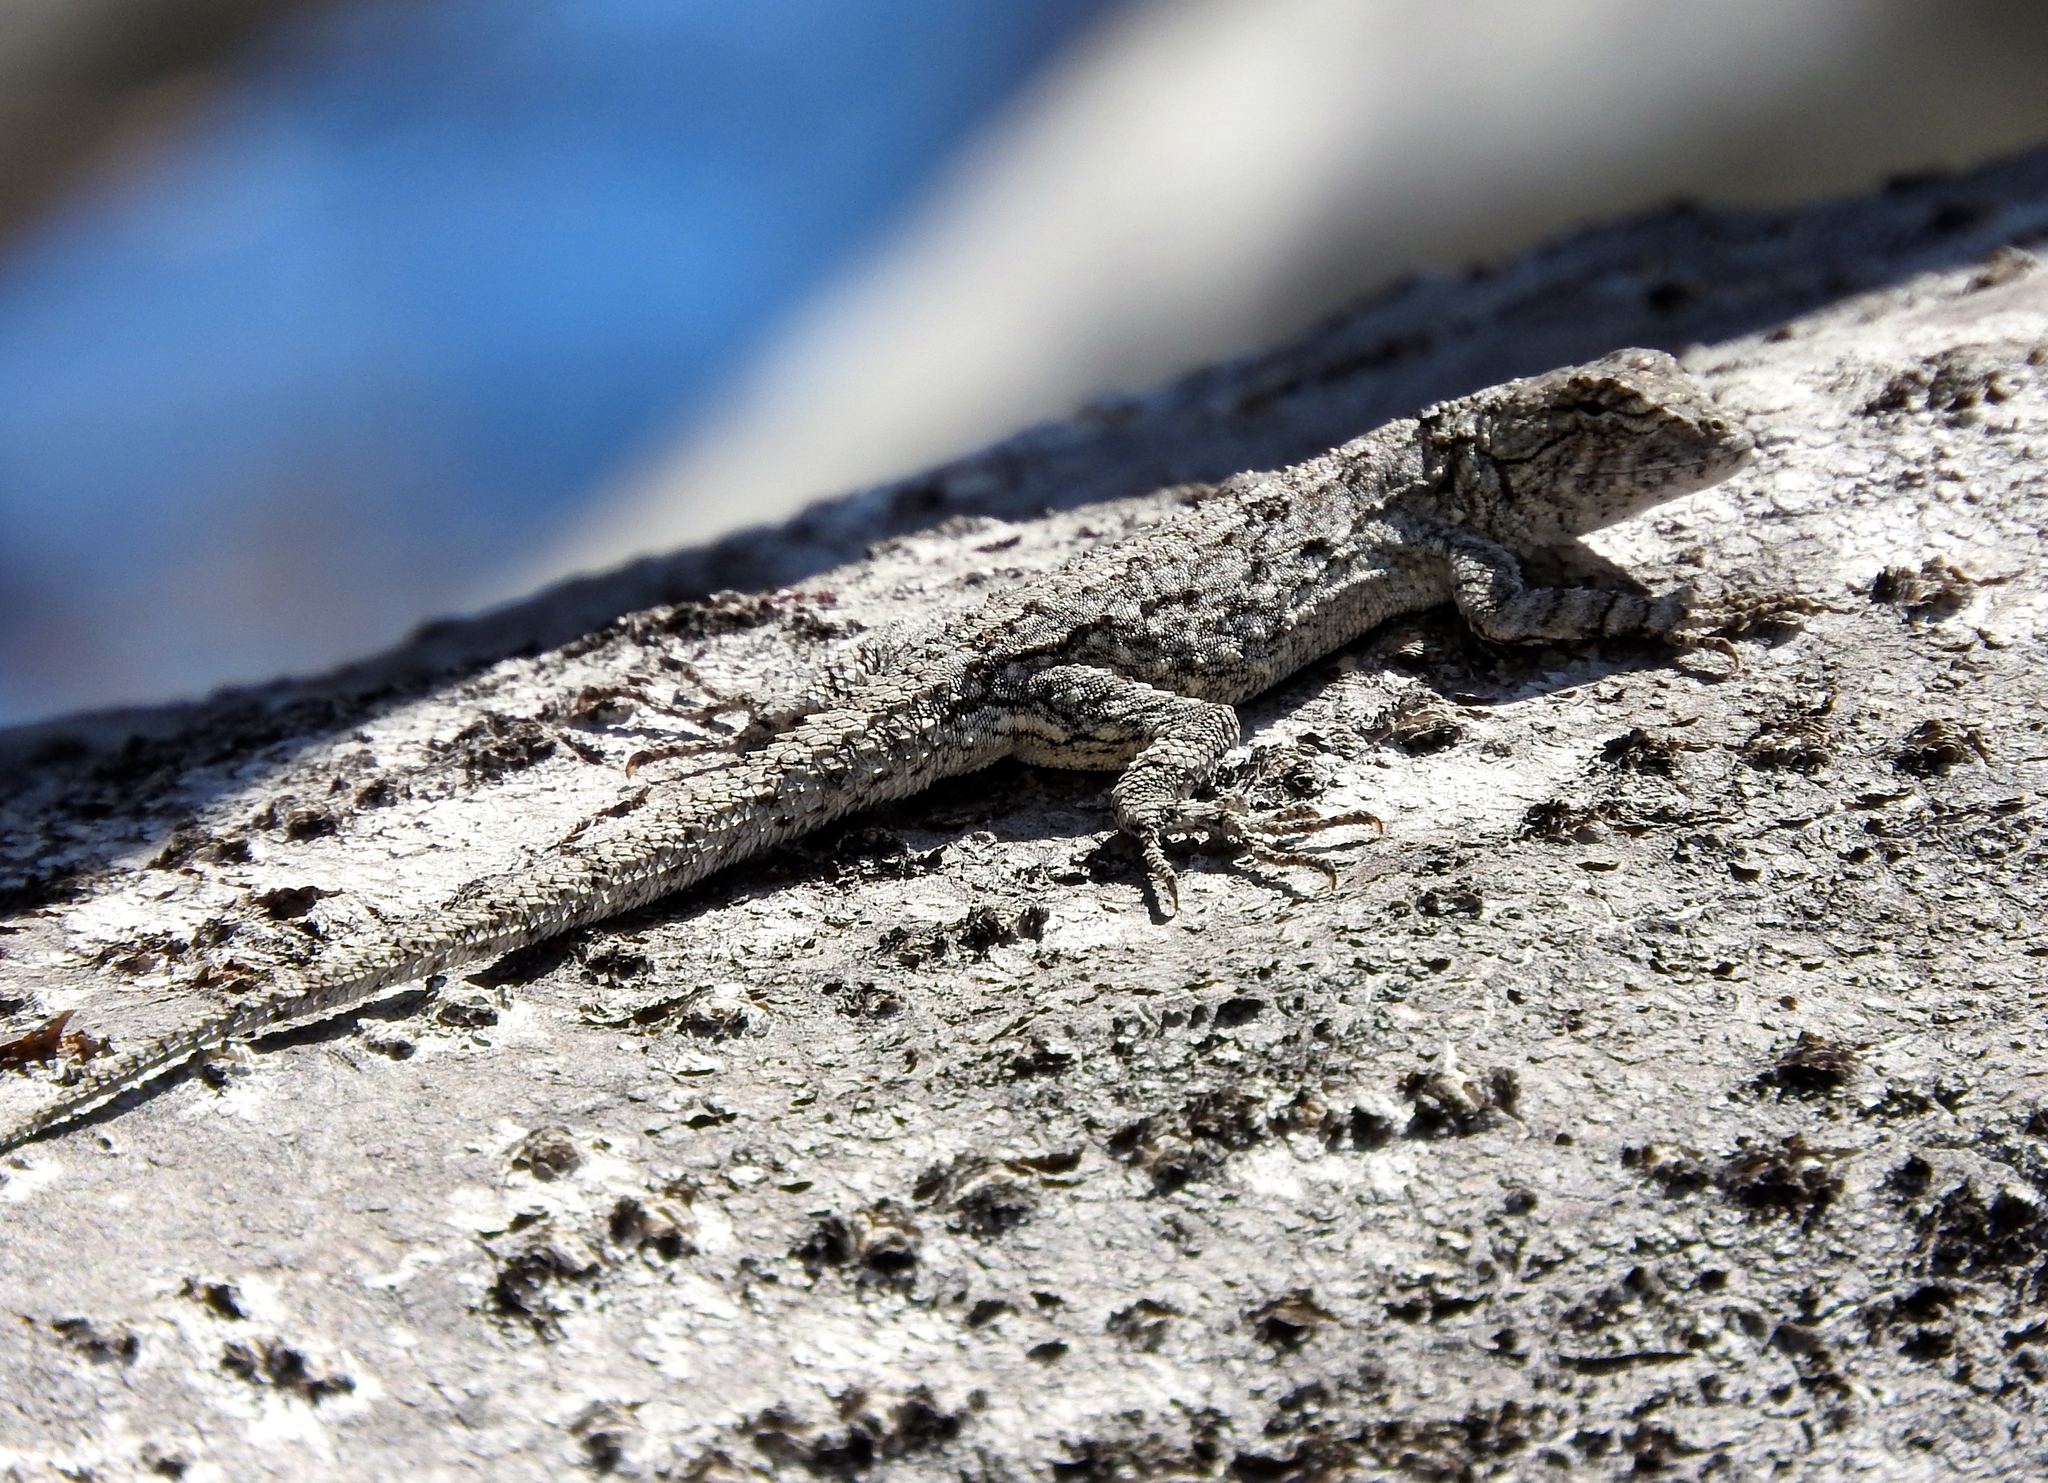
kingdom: Animalia
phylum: Chordata
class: Squamata
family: Phrynosomatidae
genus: Urosaurus
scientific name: Urosaurus
